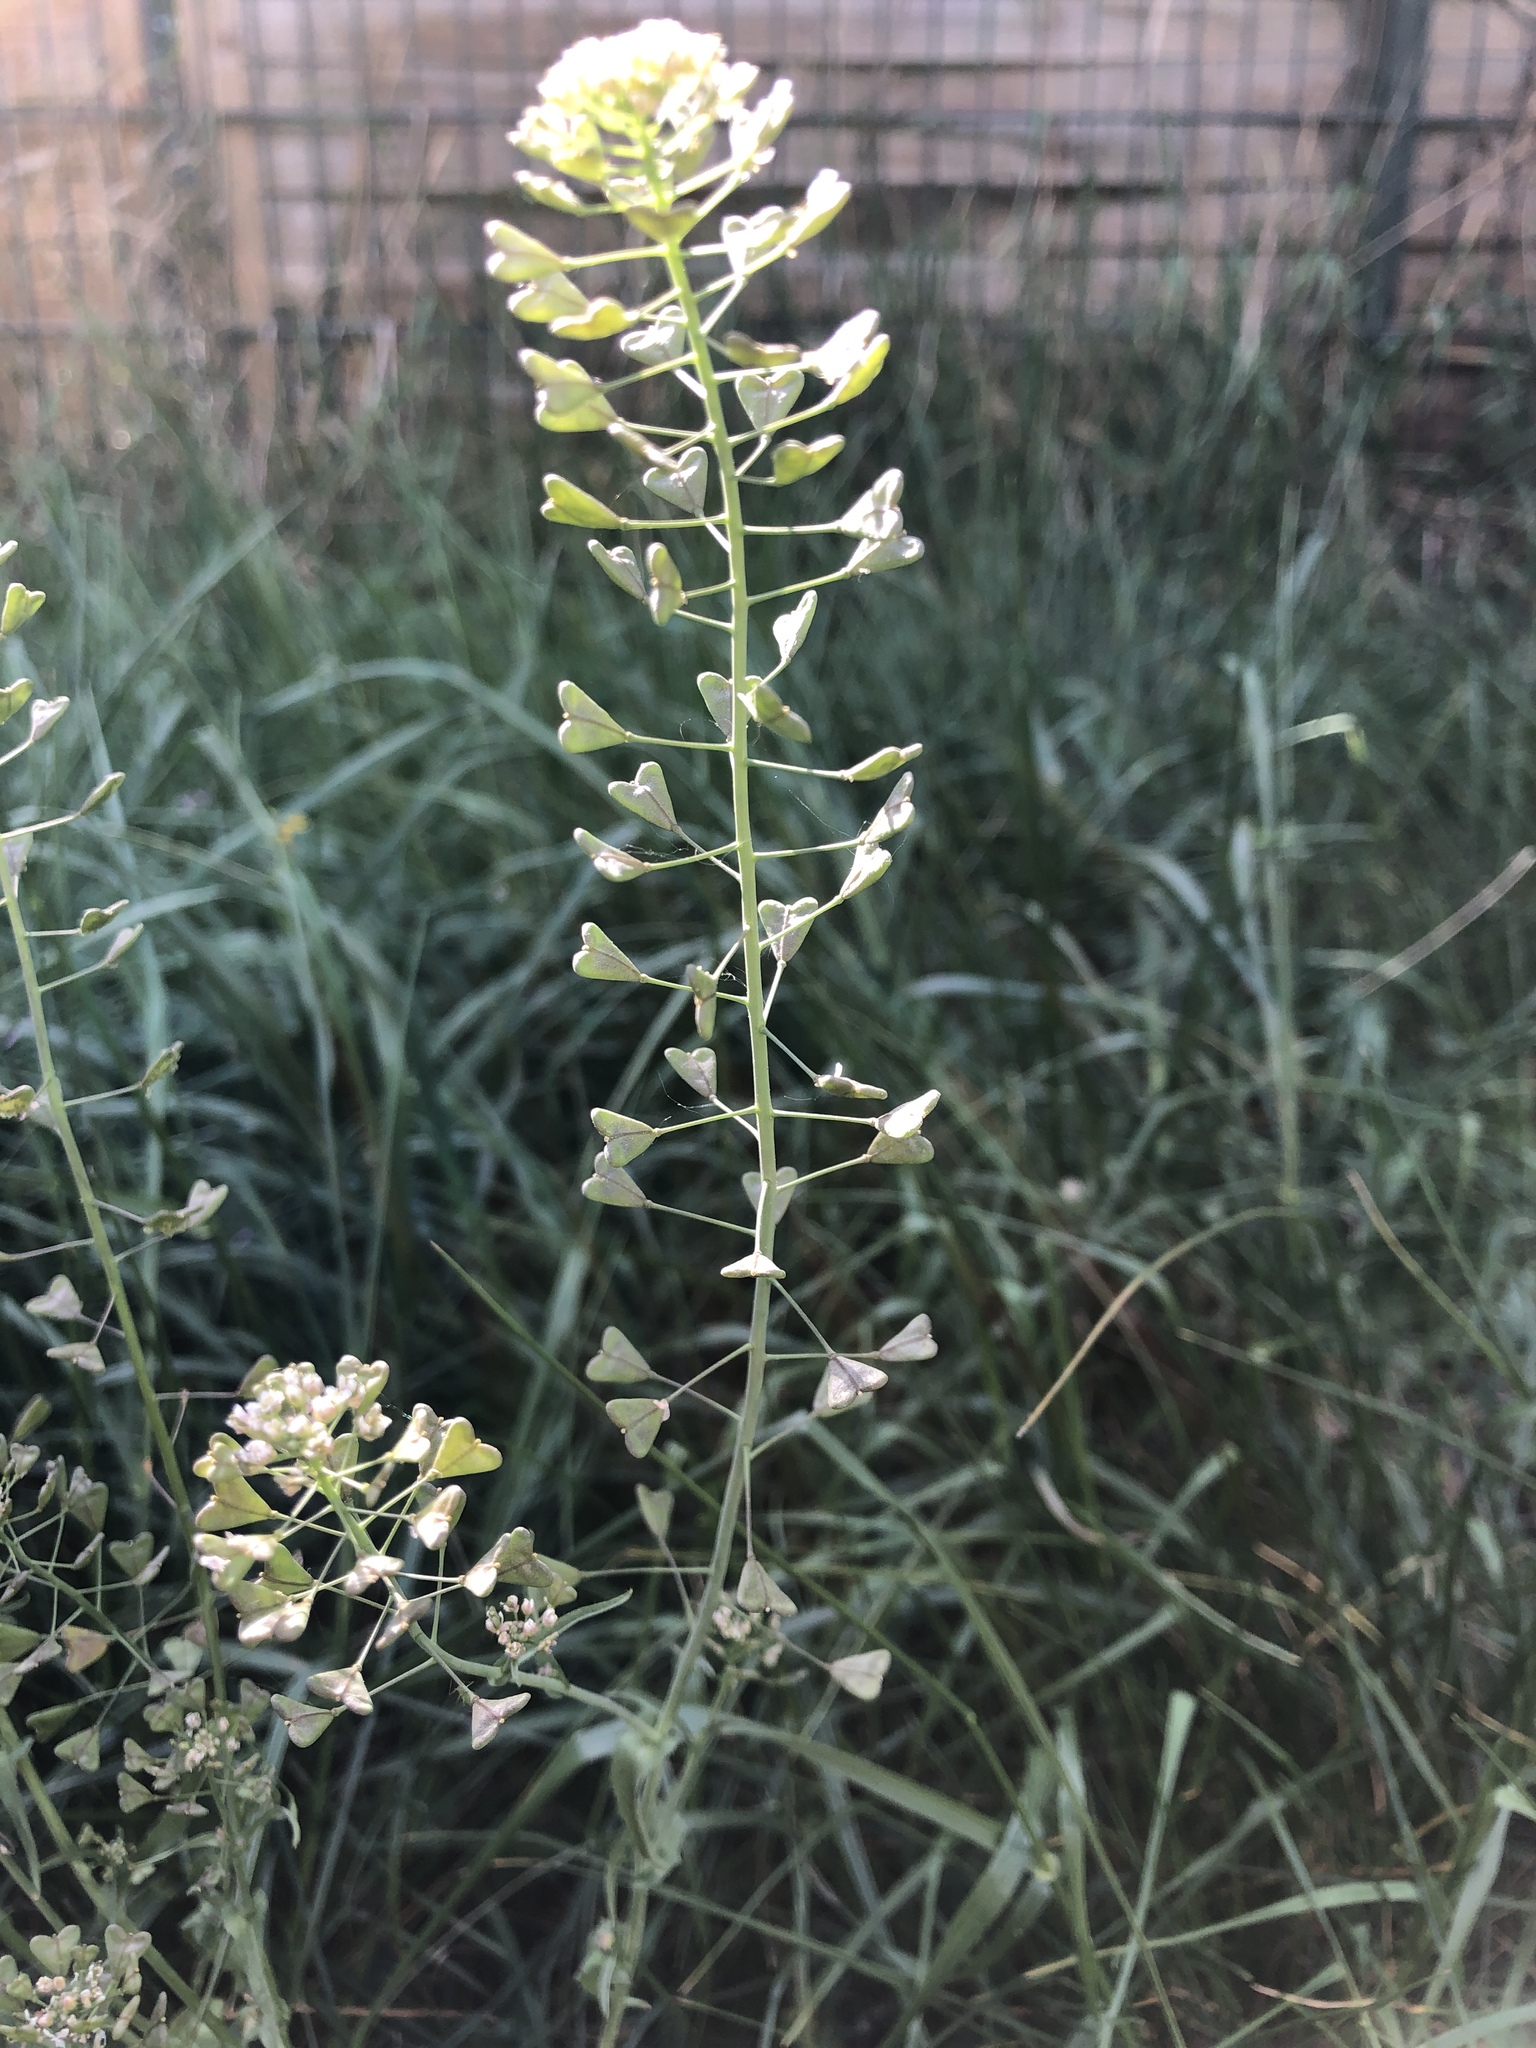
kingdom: Plantae
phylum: Tracheophyta
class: Magnoliopsida
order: Brassicales
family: Brassicaceae
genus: Capsella
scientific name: Capsella bursa-pastoris
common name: Shepherd's purse
